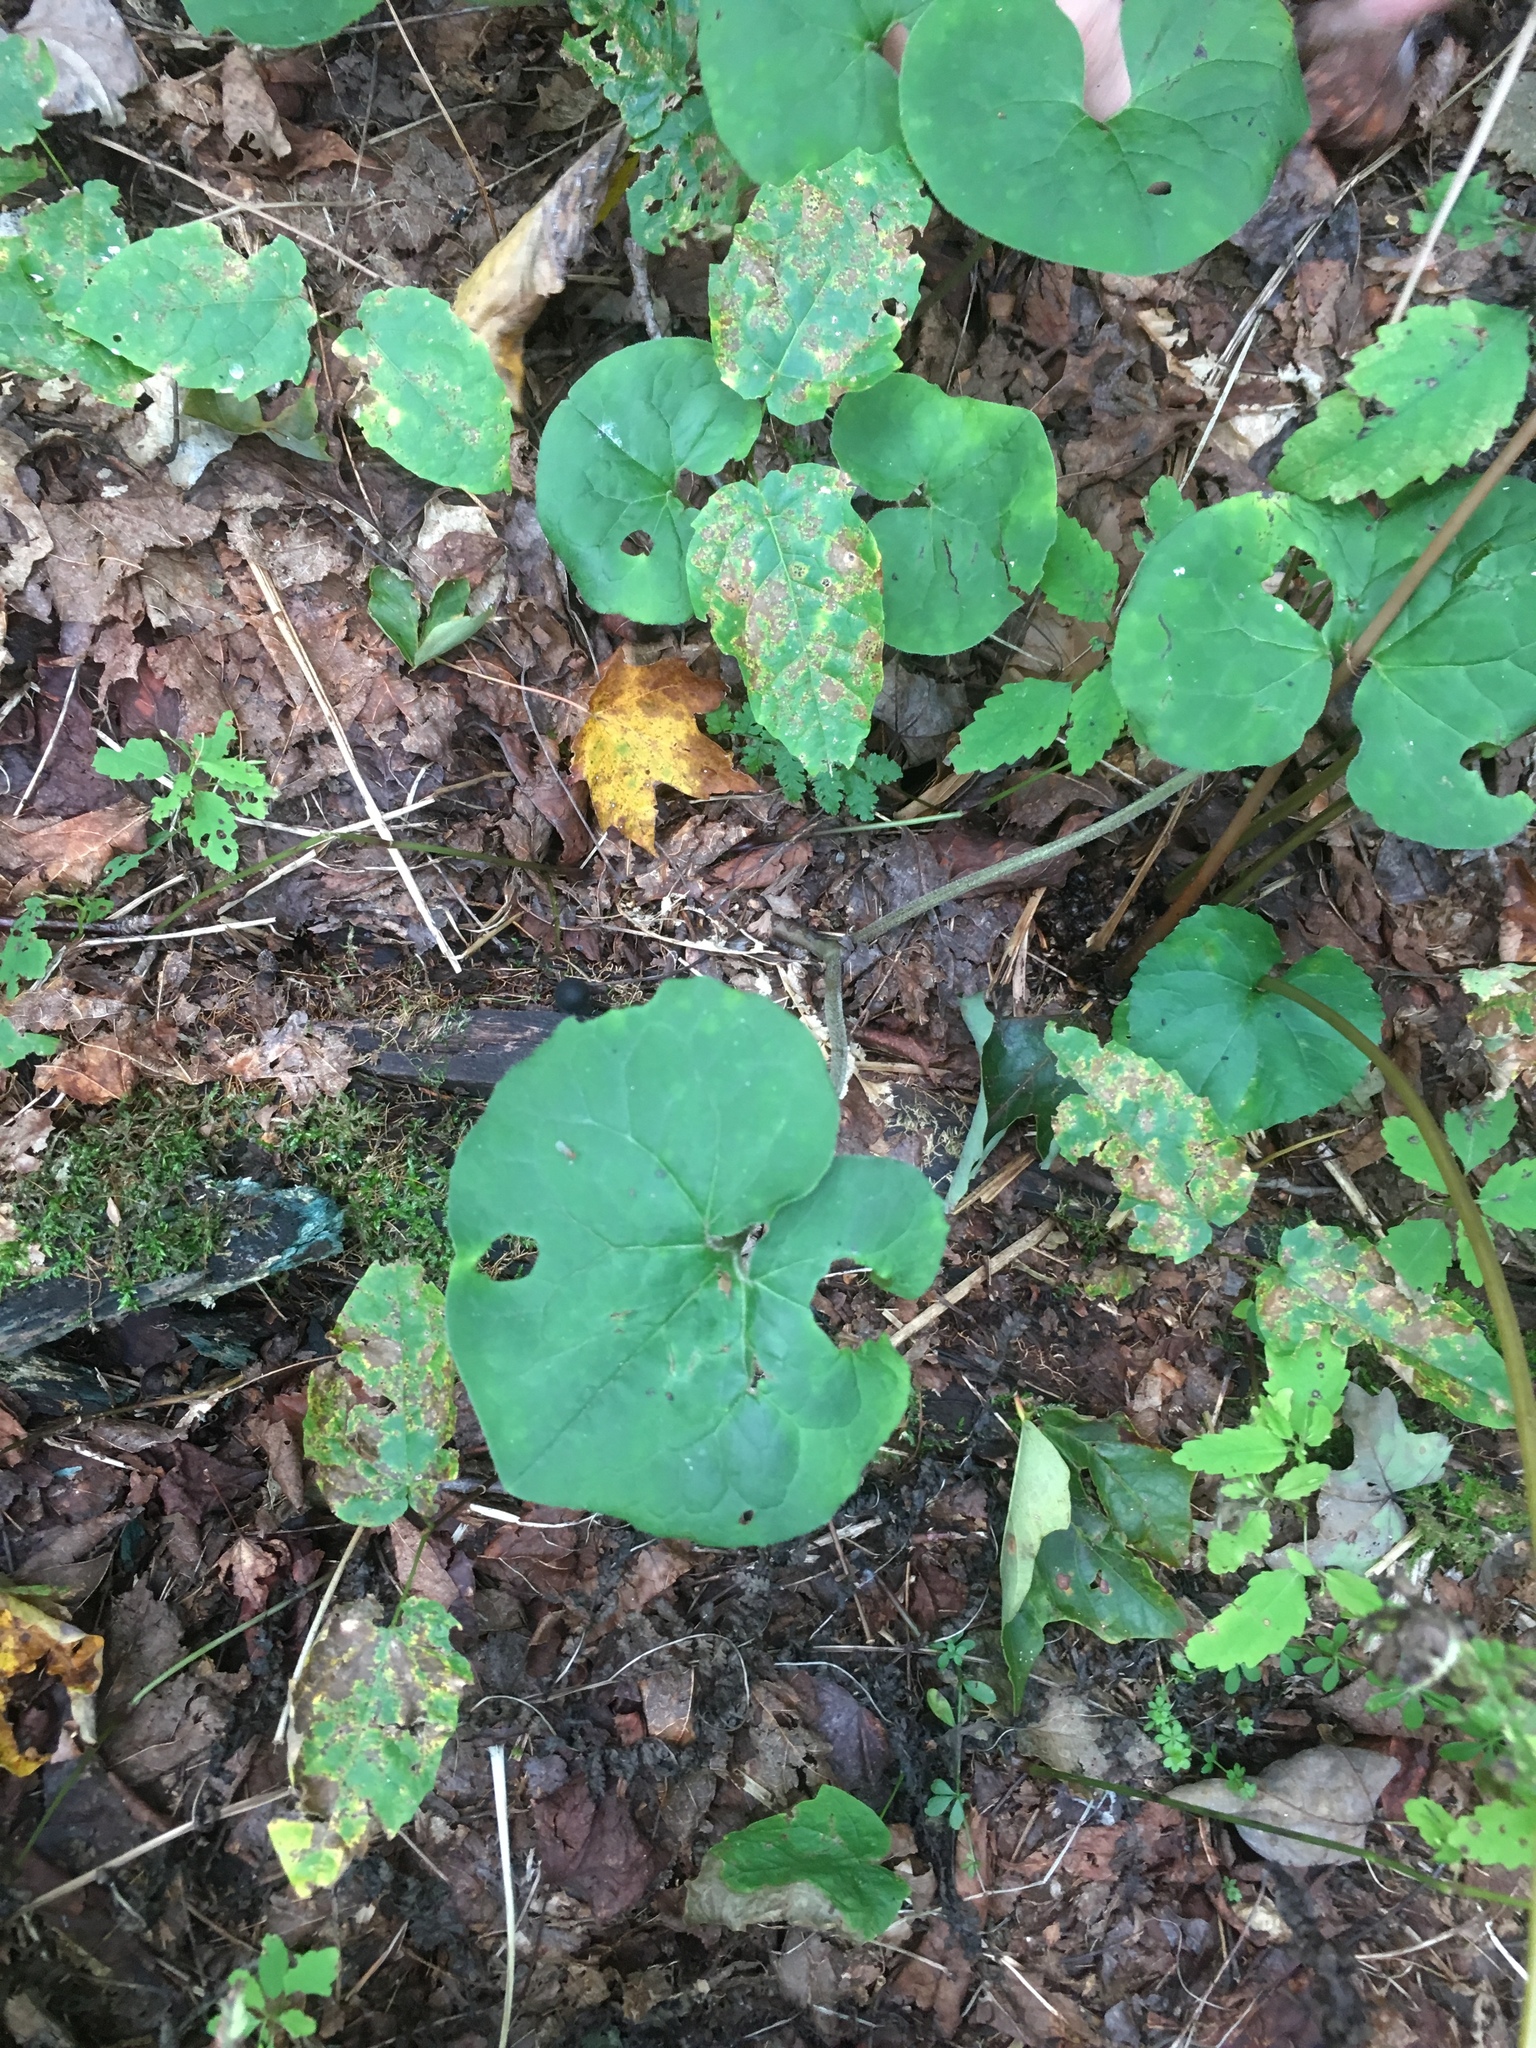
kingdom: Plantae
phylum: Tracheophyta
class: Magnoliopsida
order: Piperales
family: Aristolochiaceae
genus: Asarum
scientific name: Asarum canadense
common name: Wild ginger
